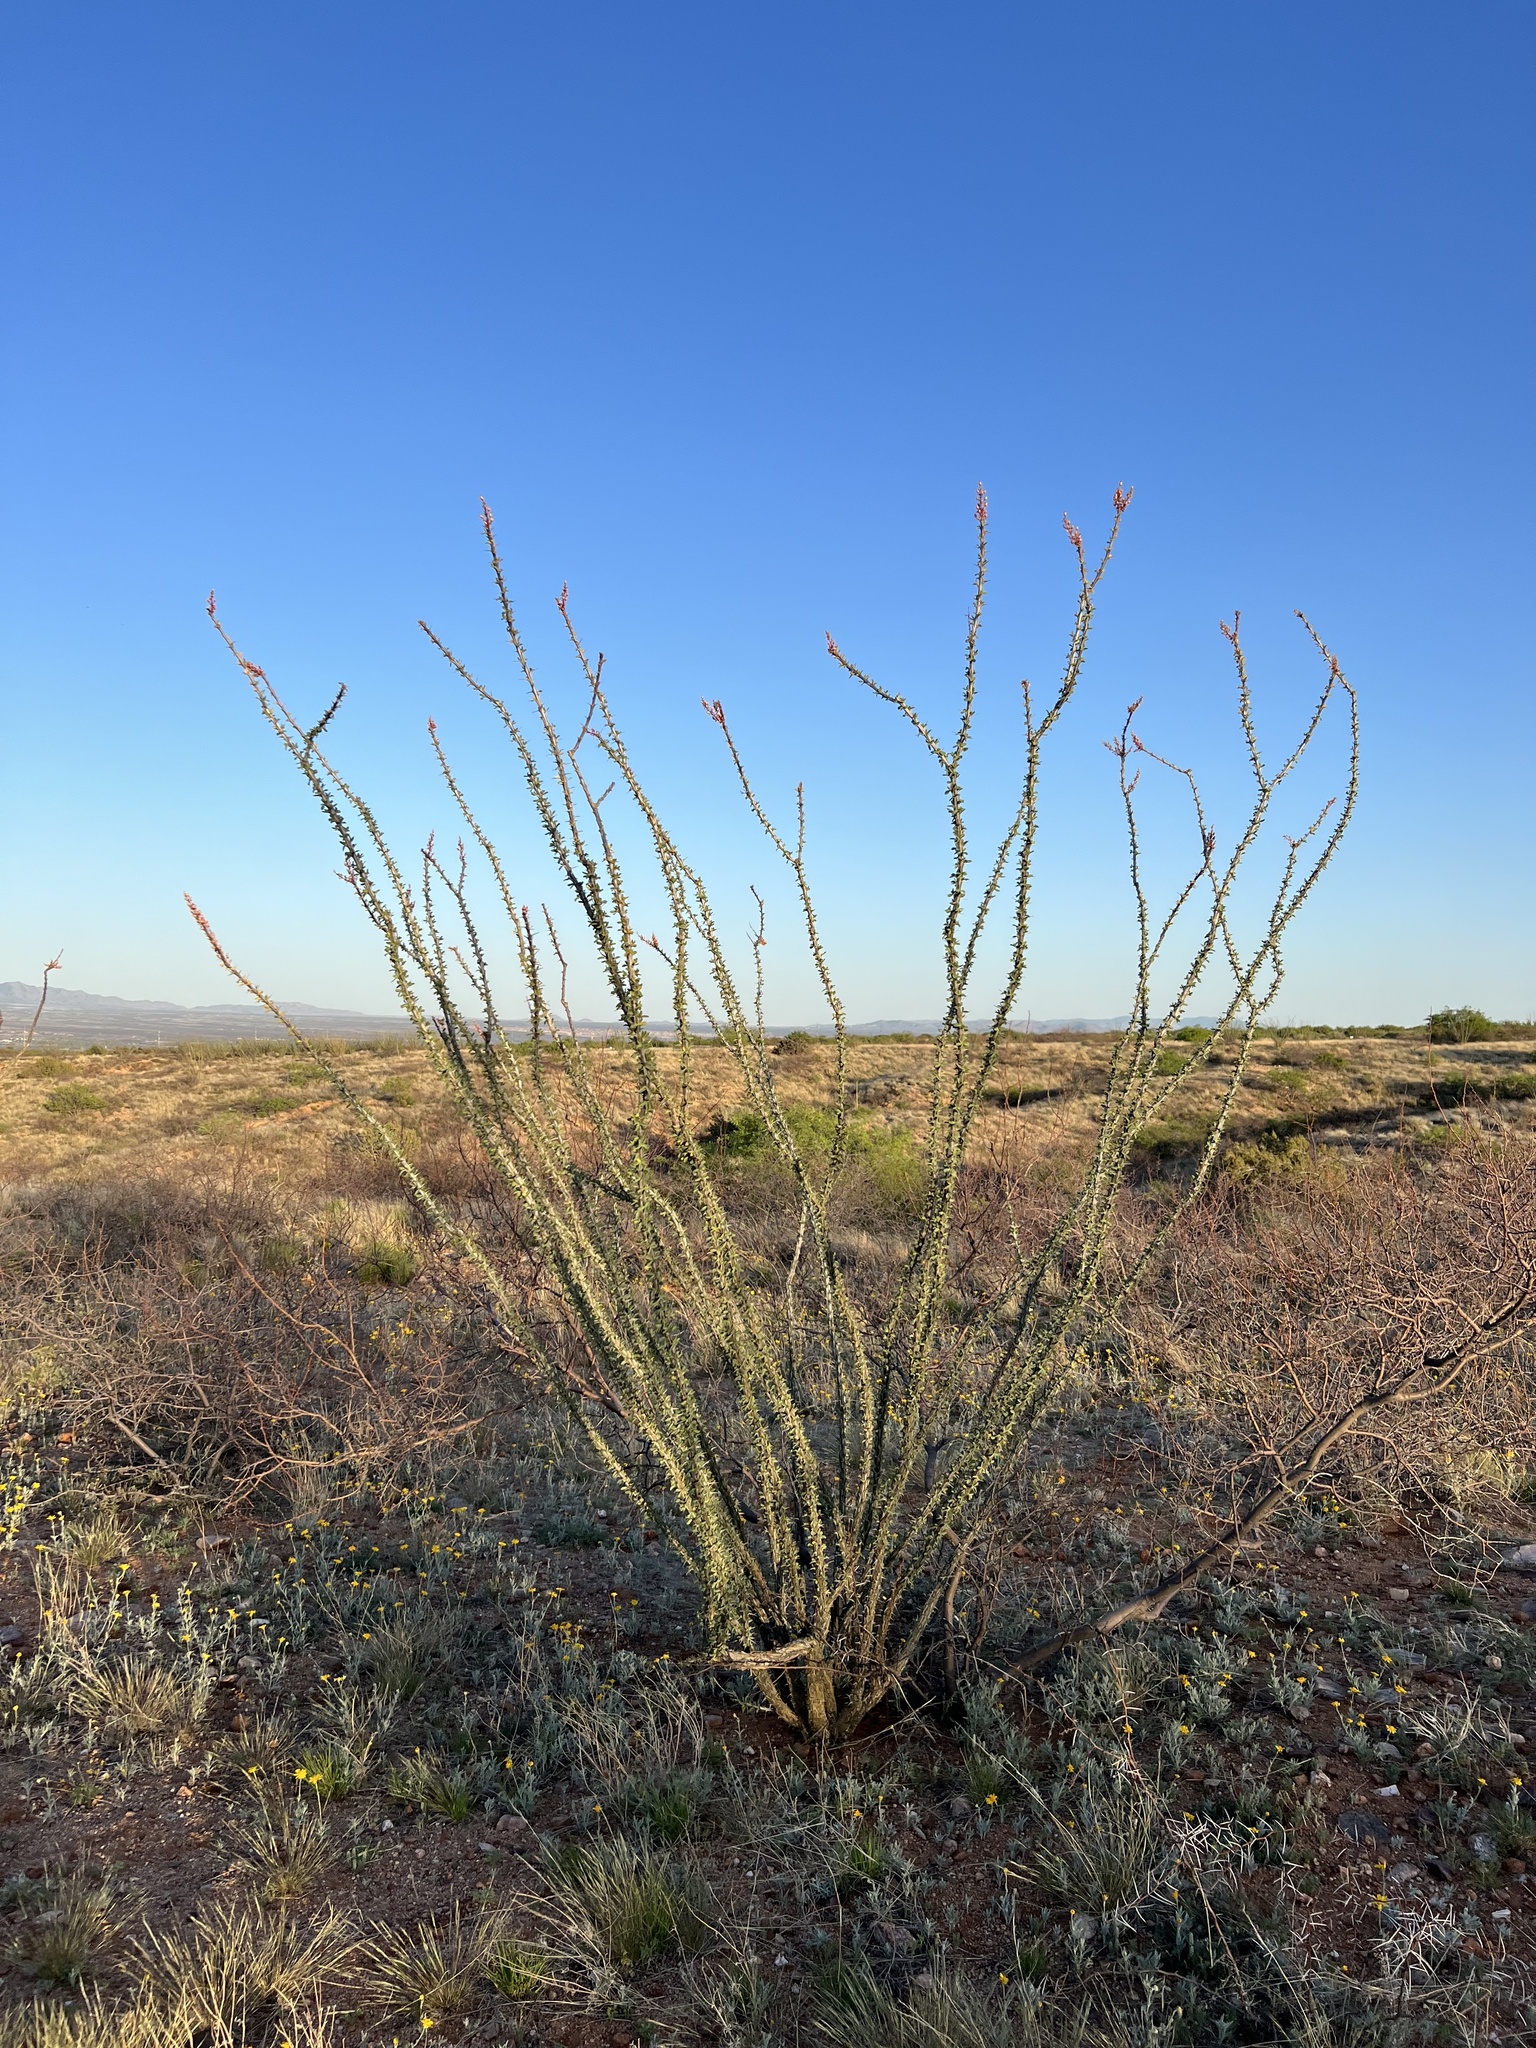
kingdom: Plantae
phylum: Tracheophyta
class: Magnoliopsida
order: Ericales
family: Fouquieriaceae
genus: Fouquieria
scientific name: Fouquieria splendens
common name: Vine-cactus
